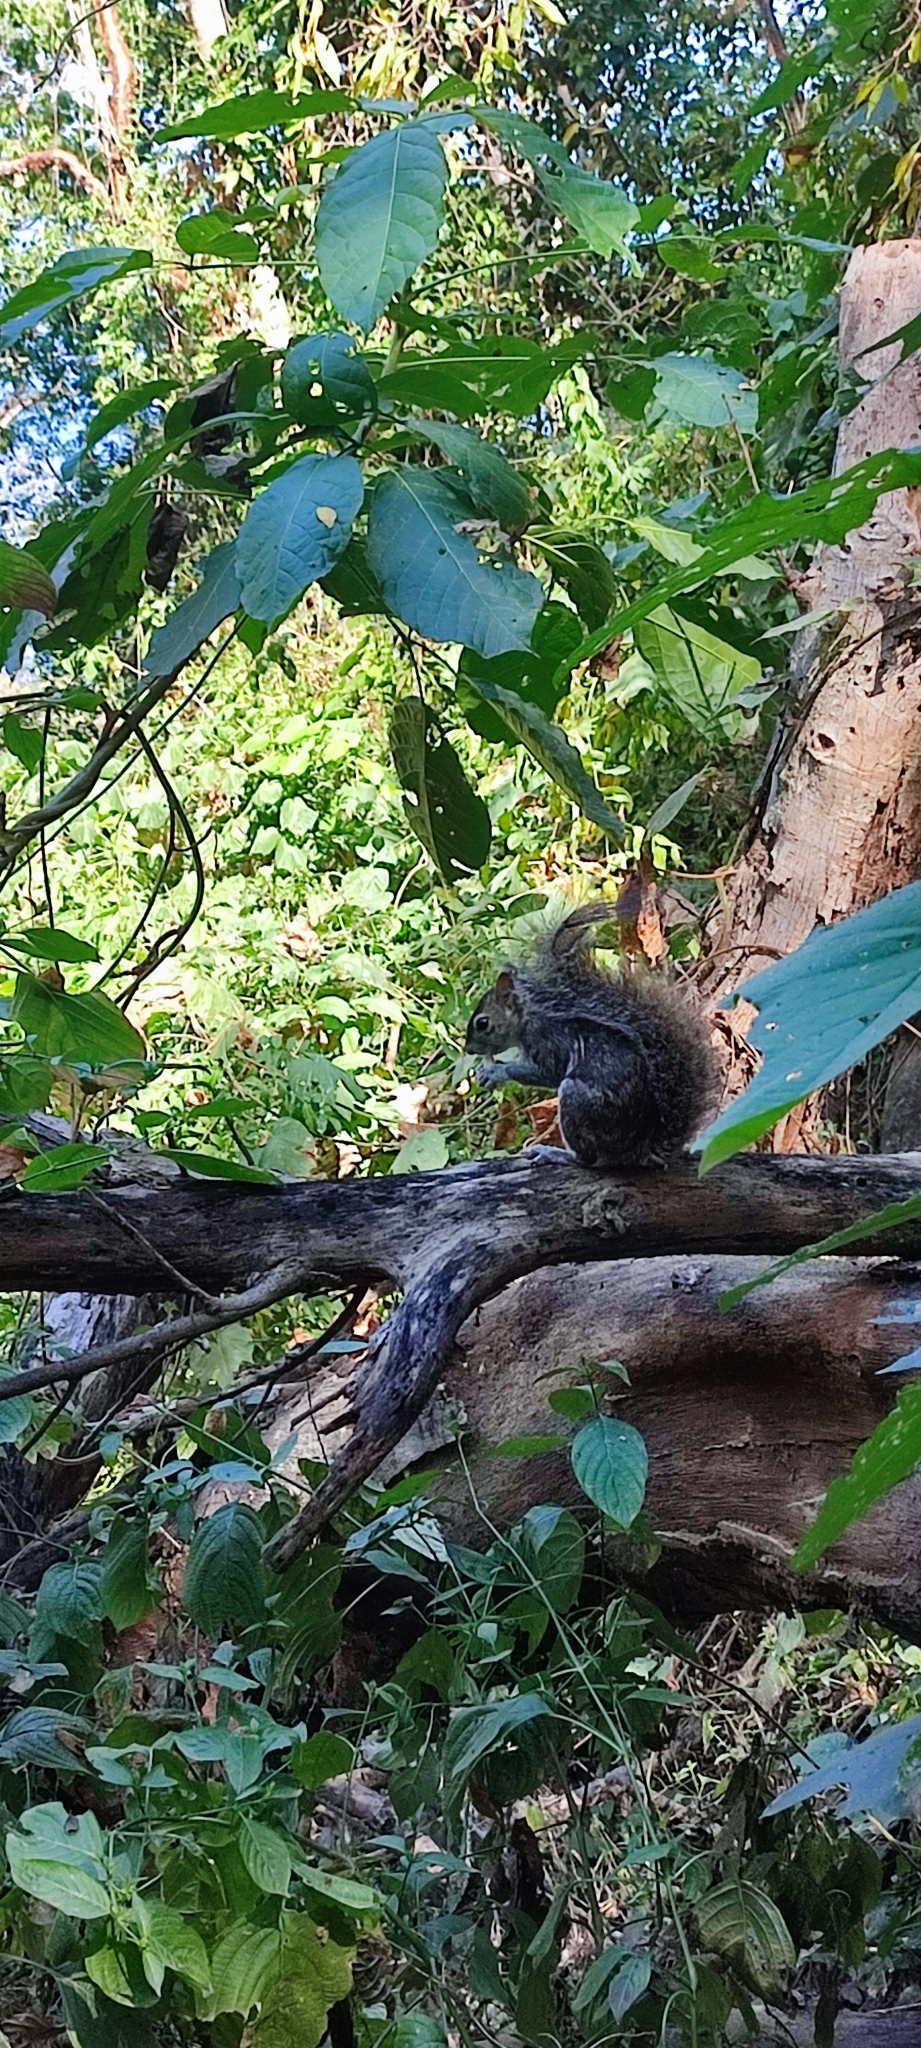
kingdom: Animalia
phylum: Chordata
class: Mammalia
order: Rodentia
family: Sciuridae
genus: Sciurus
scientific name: Sciurus colliaei
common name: Collie's squirrel
